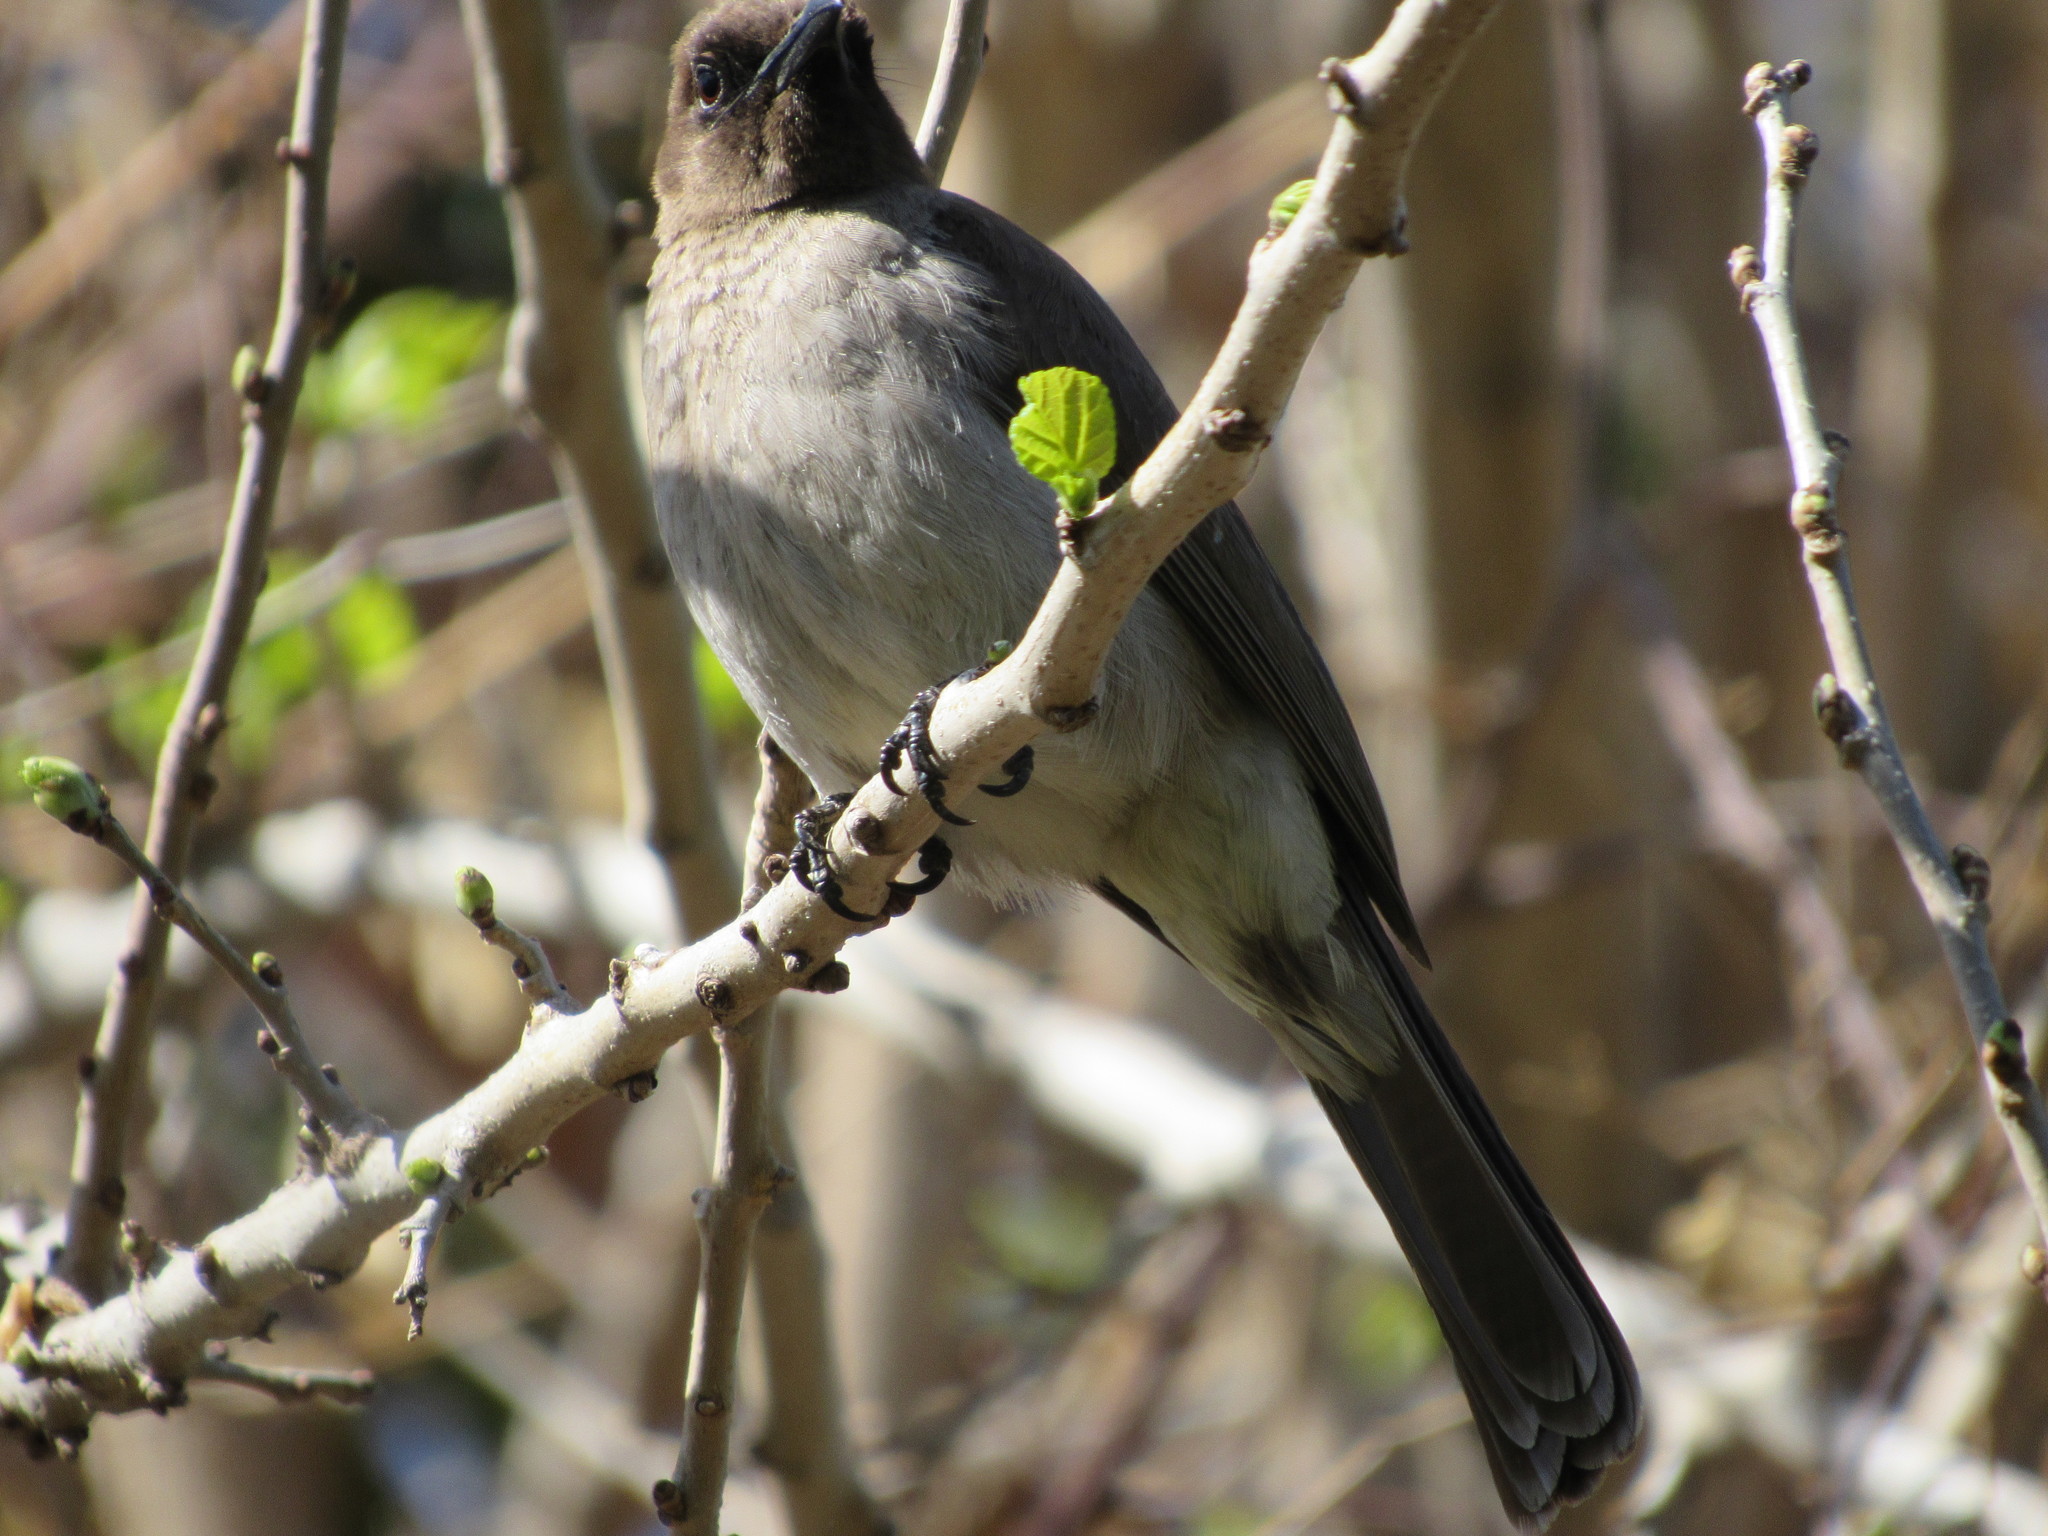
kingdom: Animalia
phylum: Chordata
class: Aves
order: Passeriformes
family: Pycnonotidae
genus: Pycnonotus
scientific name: Pycnonotus barbatus
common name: Common bulbul
